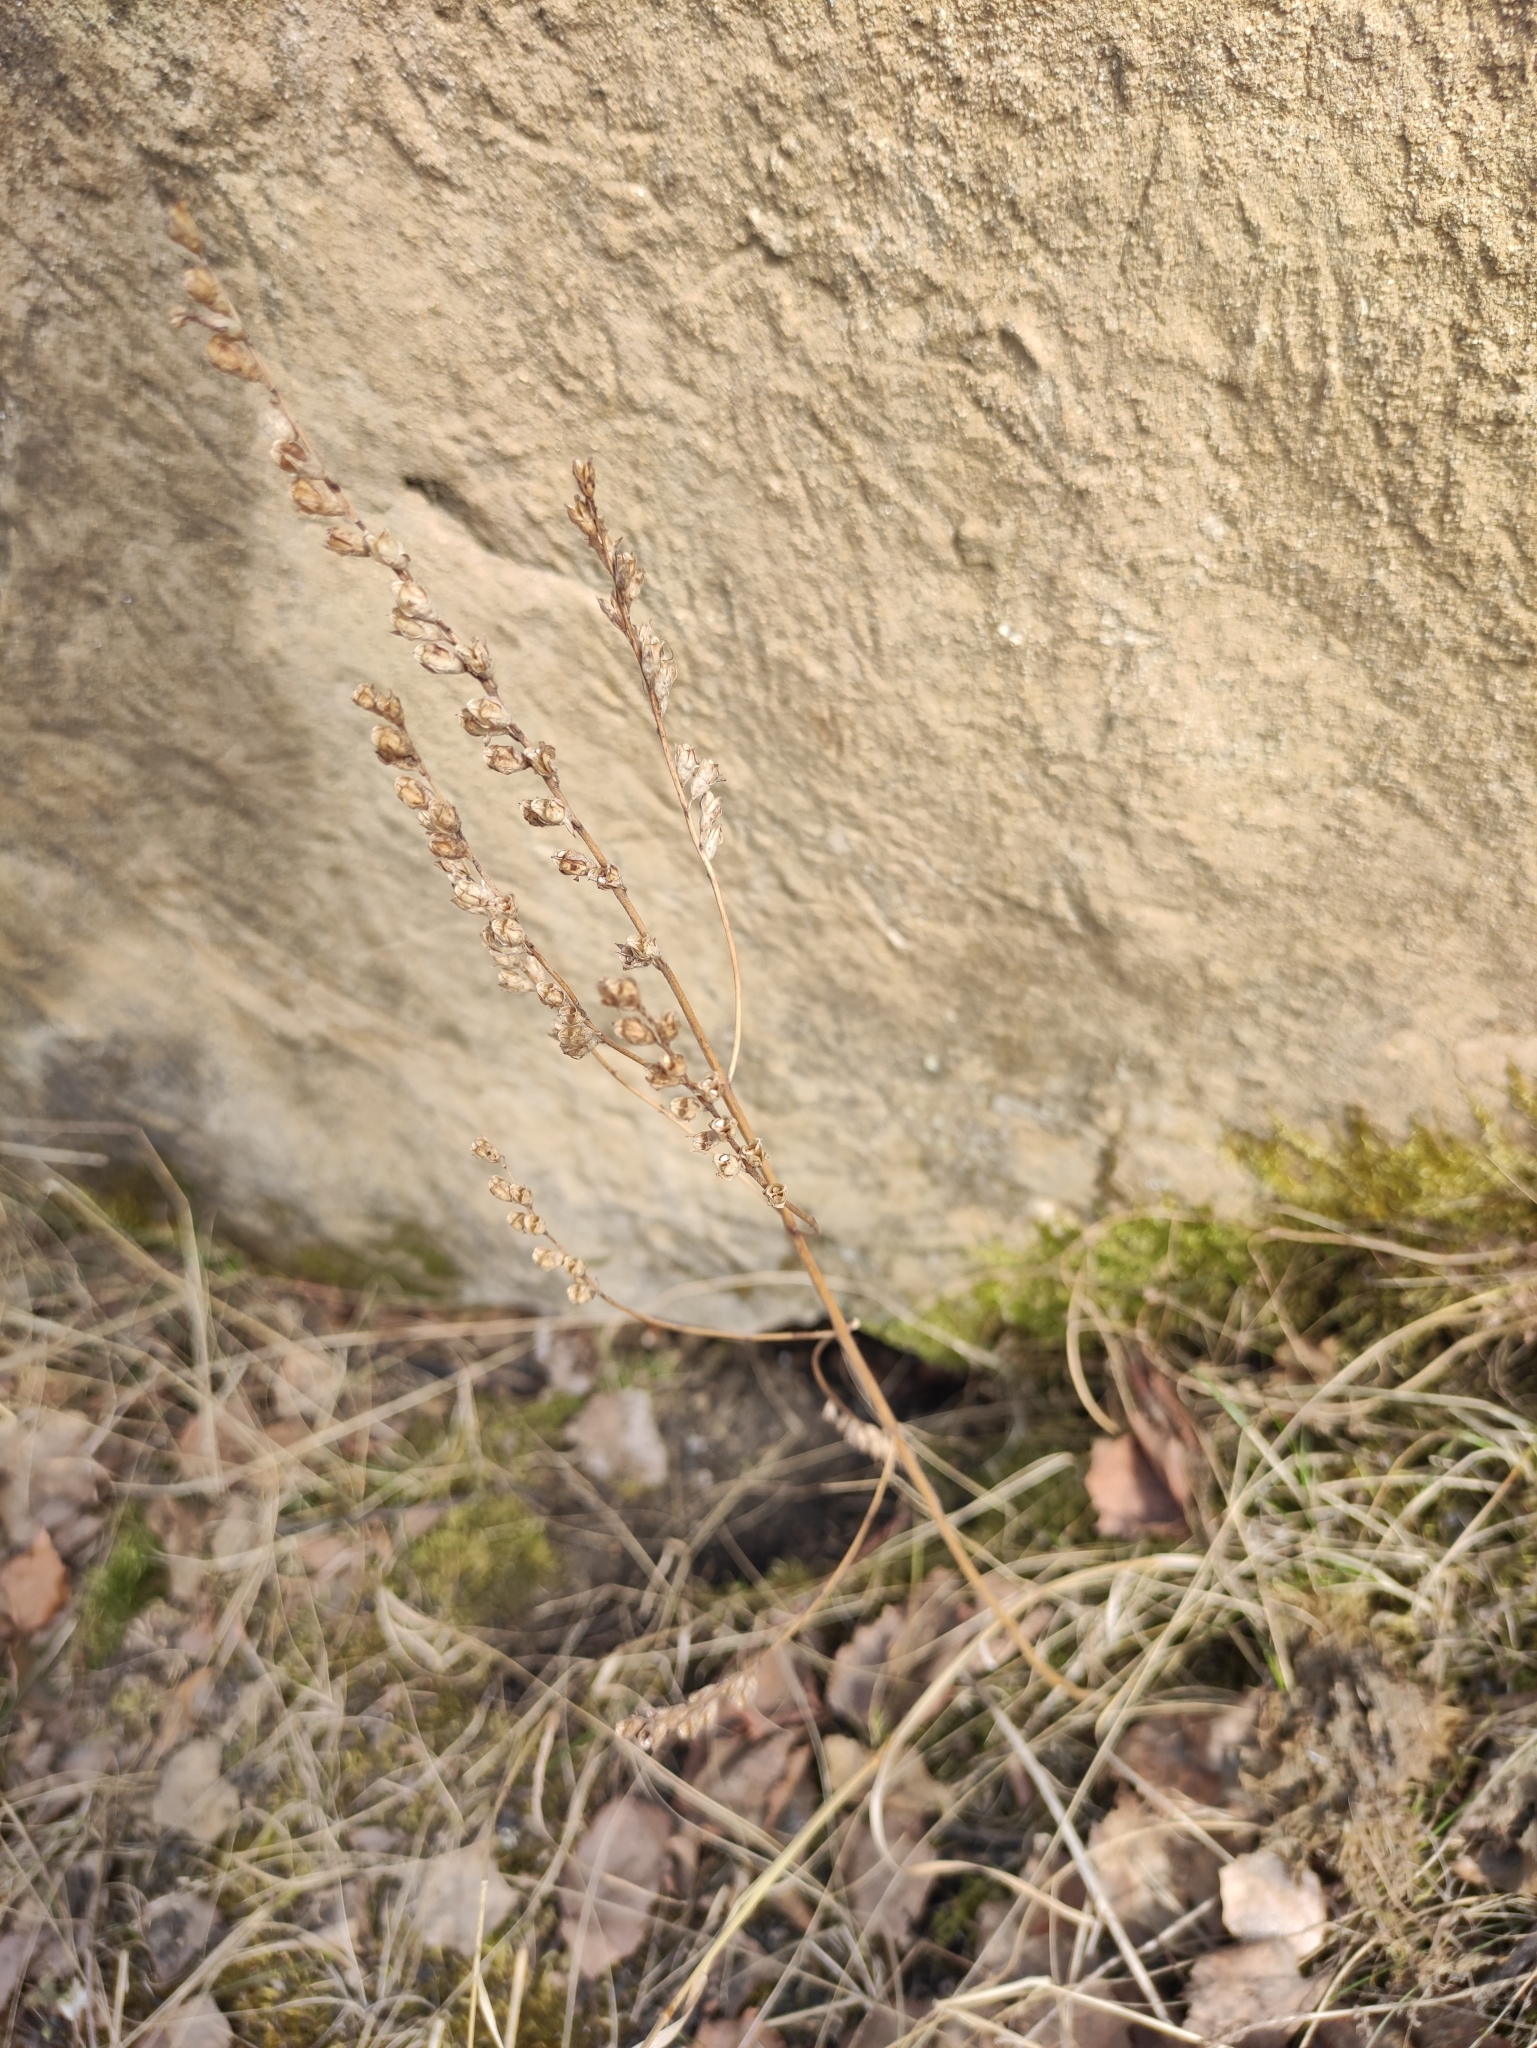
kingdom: Plantae
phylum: Tracheophyta
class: Magnoliopsida
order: Lamiales
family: Orobanchaceae
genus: Odontites
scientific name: Odontites vulgaris
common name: Broomrape
